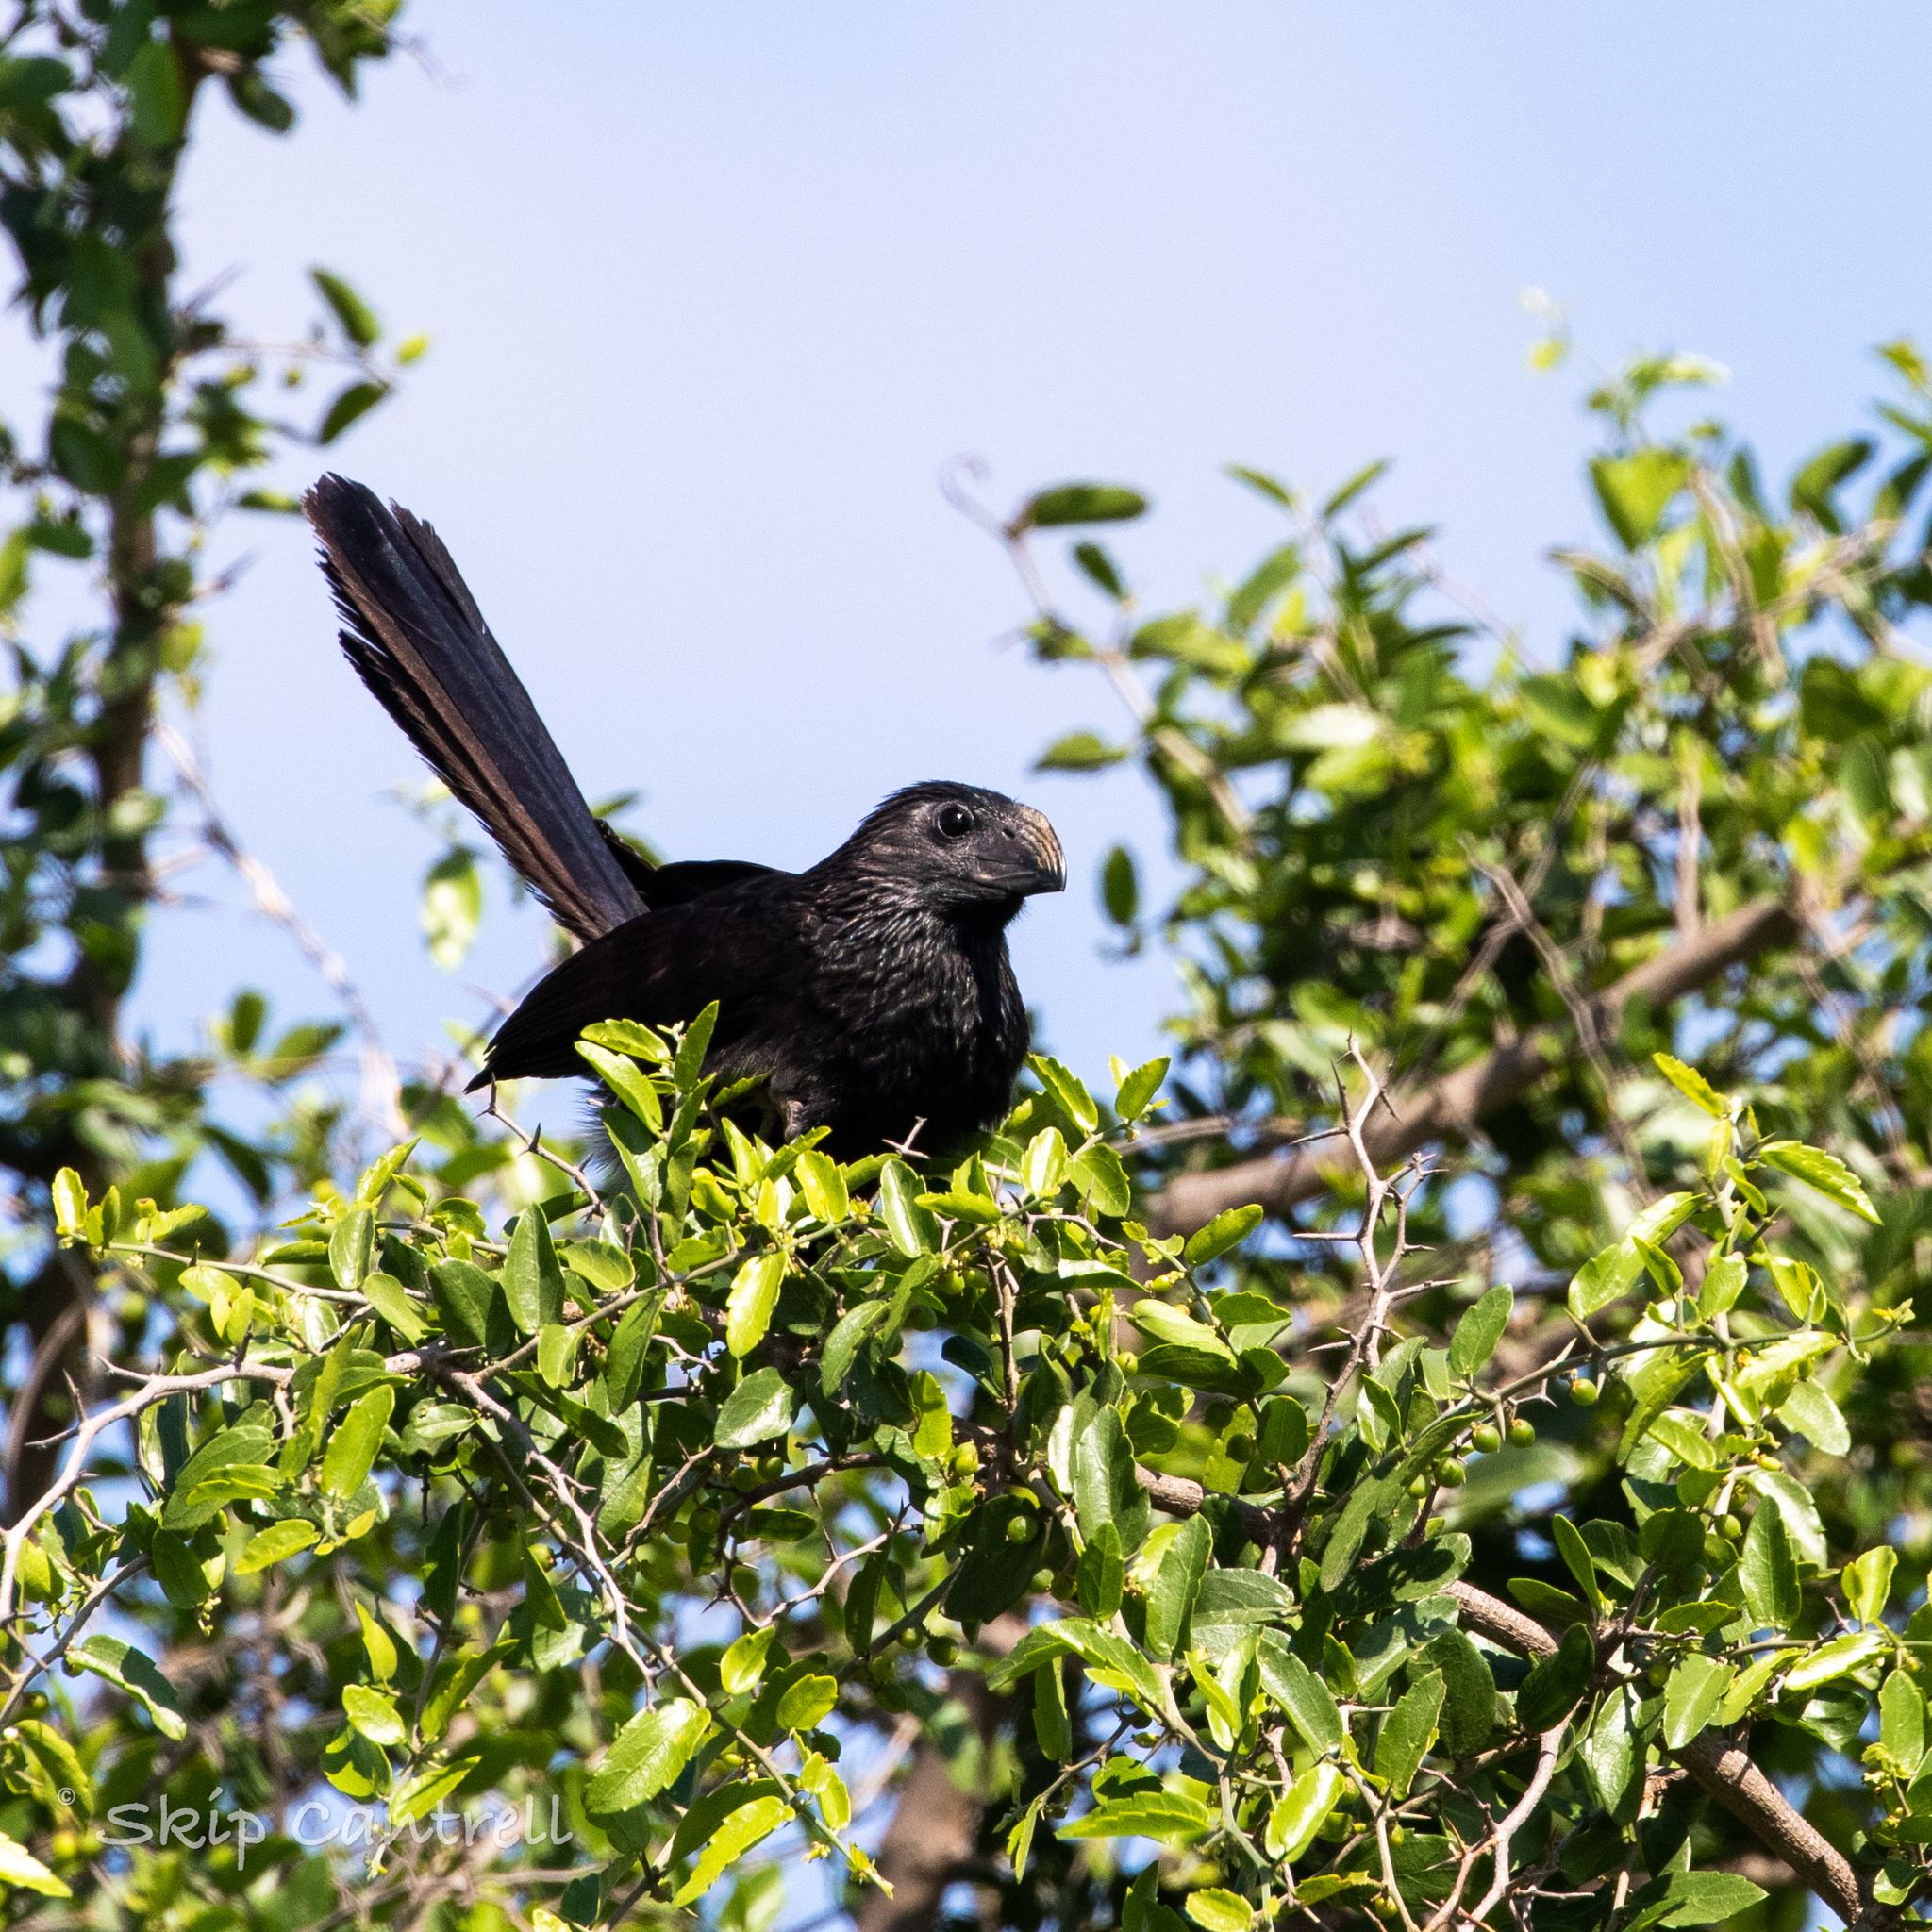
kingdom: Animalia
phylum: Chordata
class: Aves
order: Cuculiformes
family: Cuculidae
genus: Crotophaga
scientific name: Crotophaga sulcirostris
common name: Groove-billed ani
